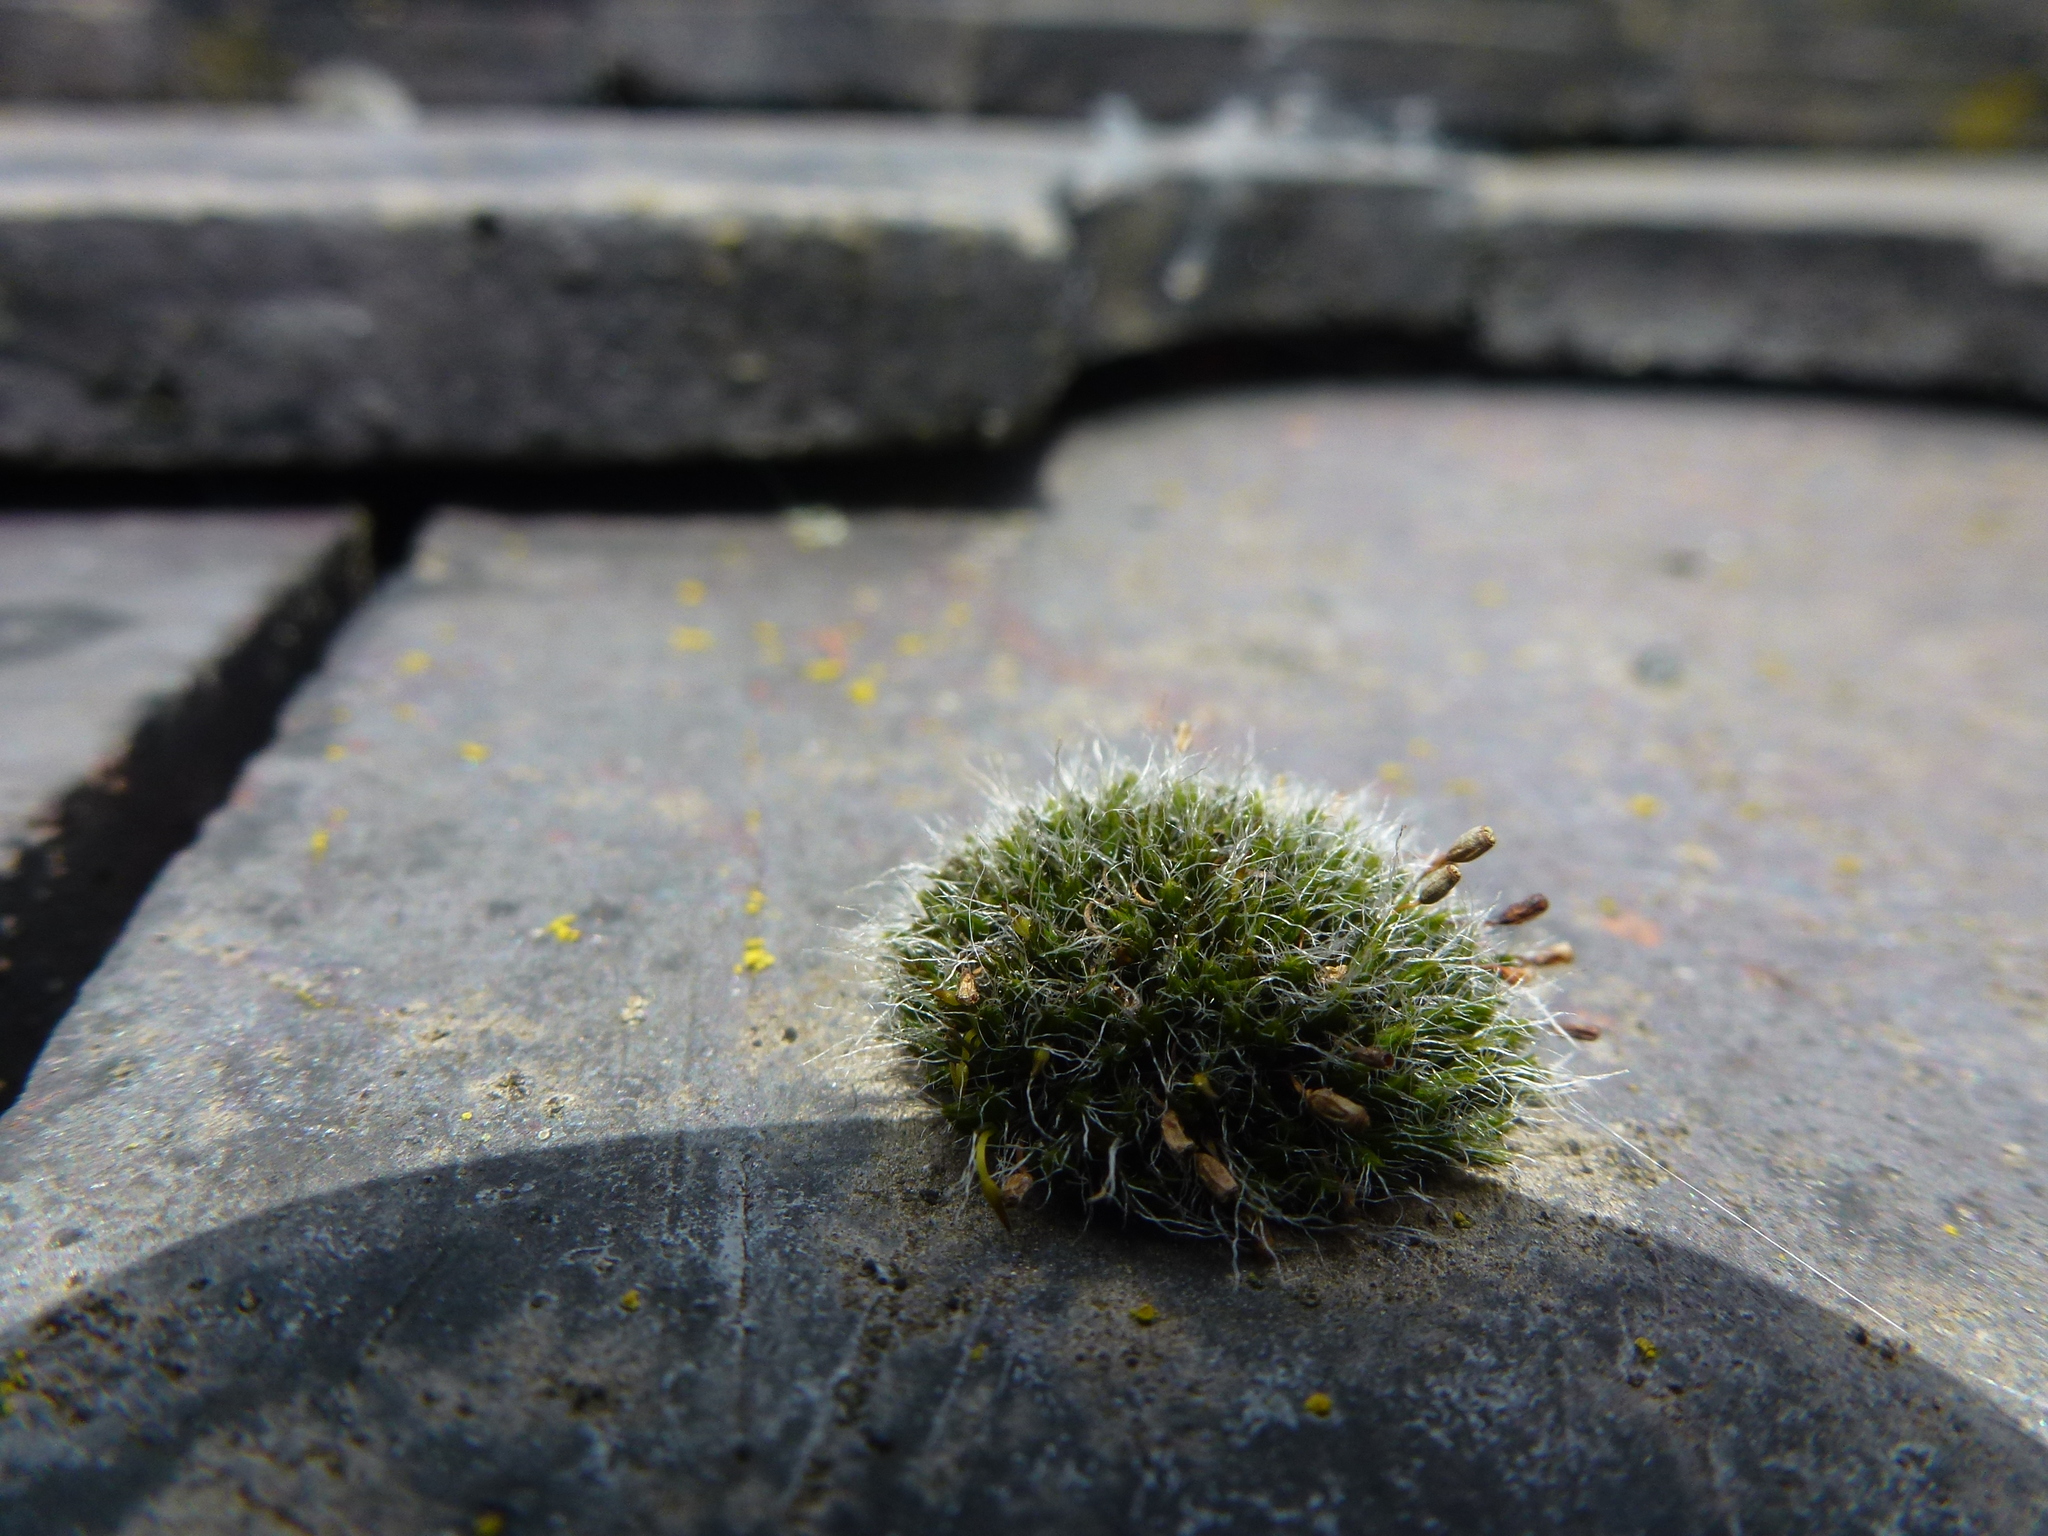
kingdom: Plantae
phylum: Bryophyta
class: Bryopsida
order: Grimmiales
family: Grimmiaceae
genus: Grimmia
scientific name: Grimmia pulvinata
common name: Grey-cushioned grimmia
